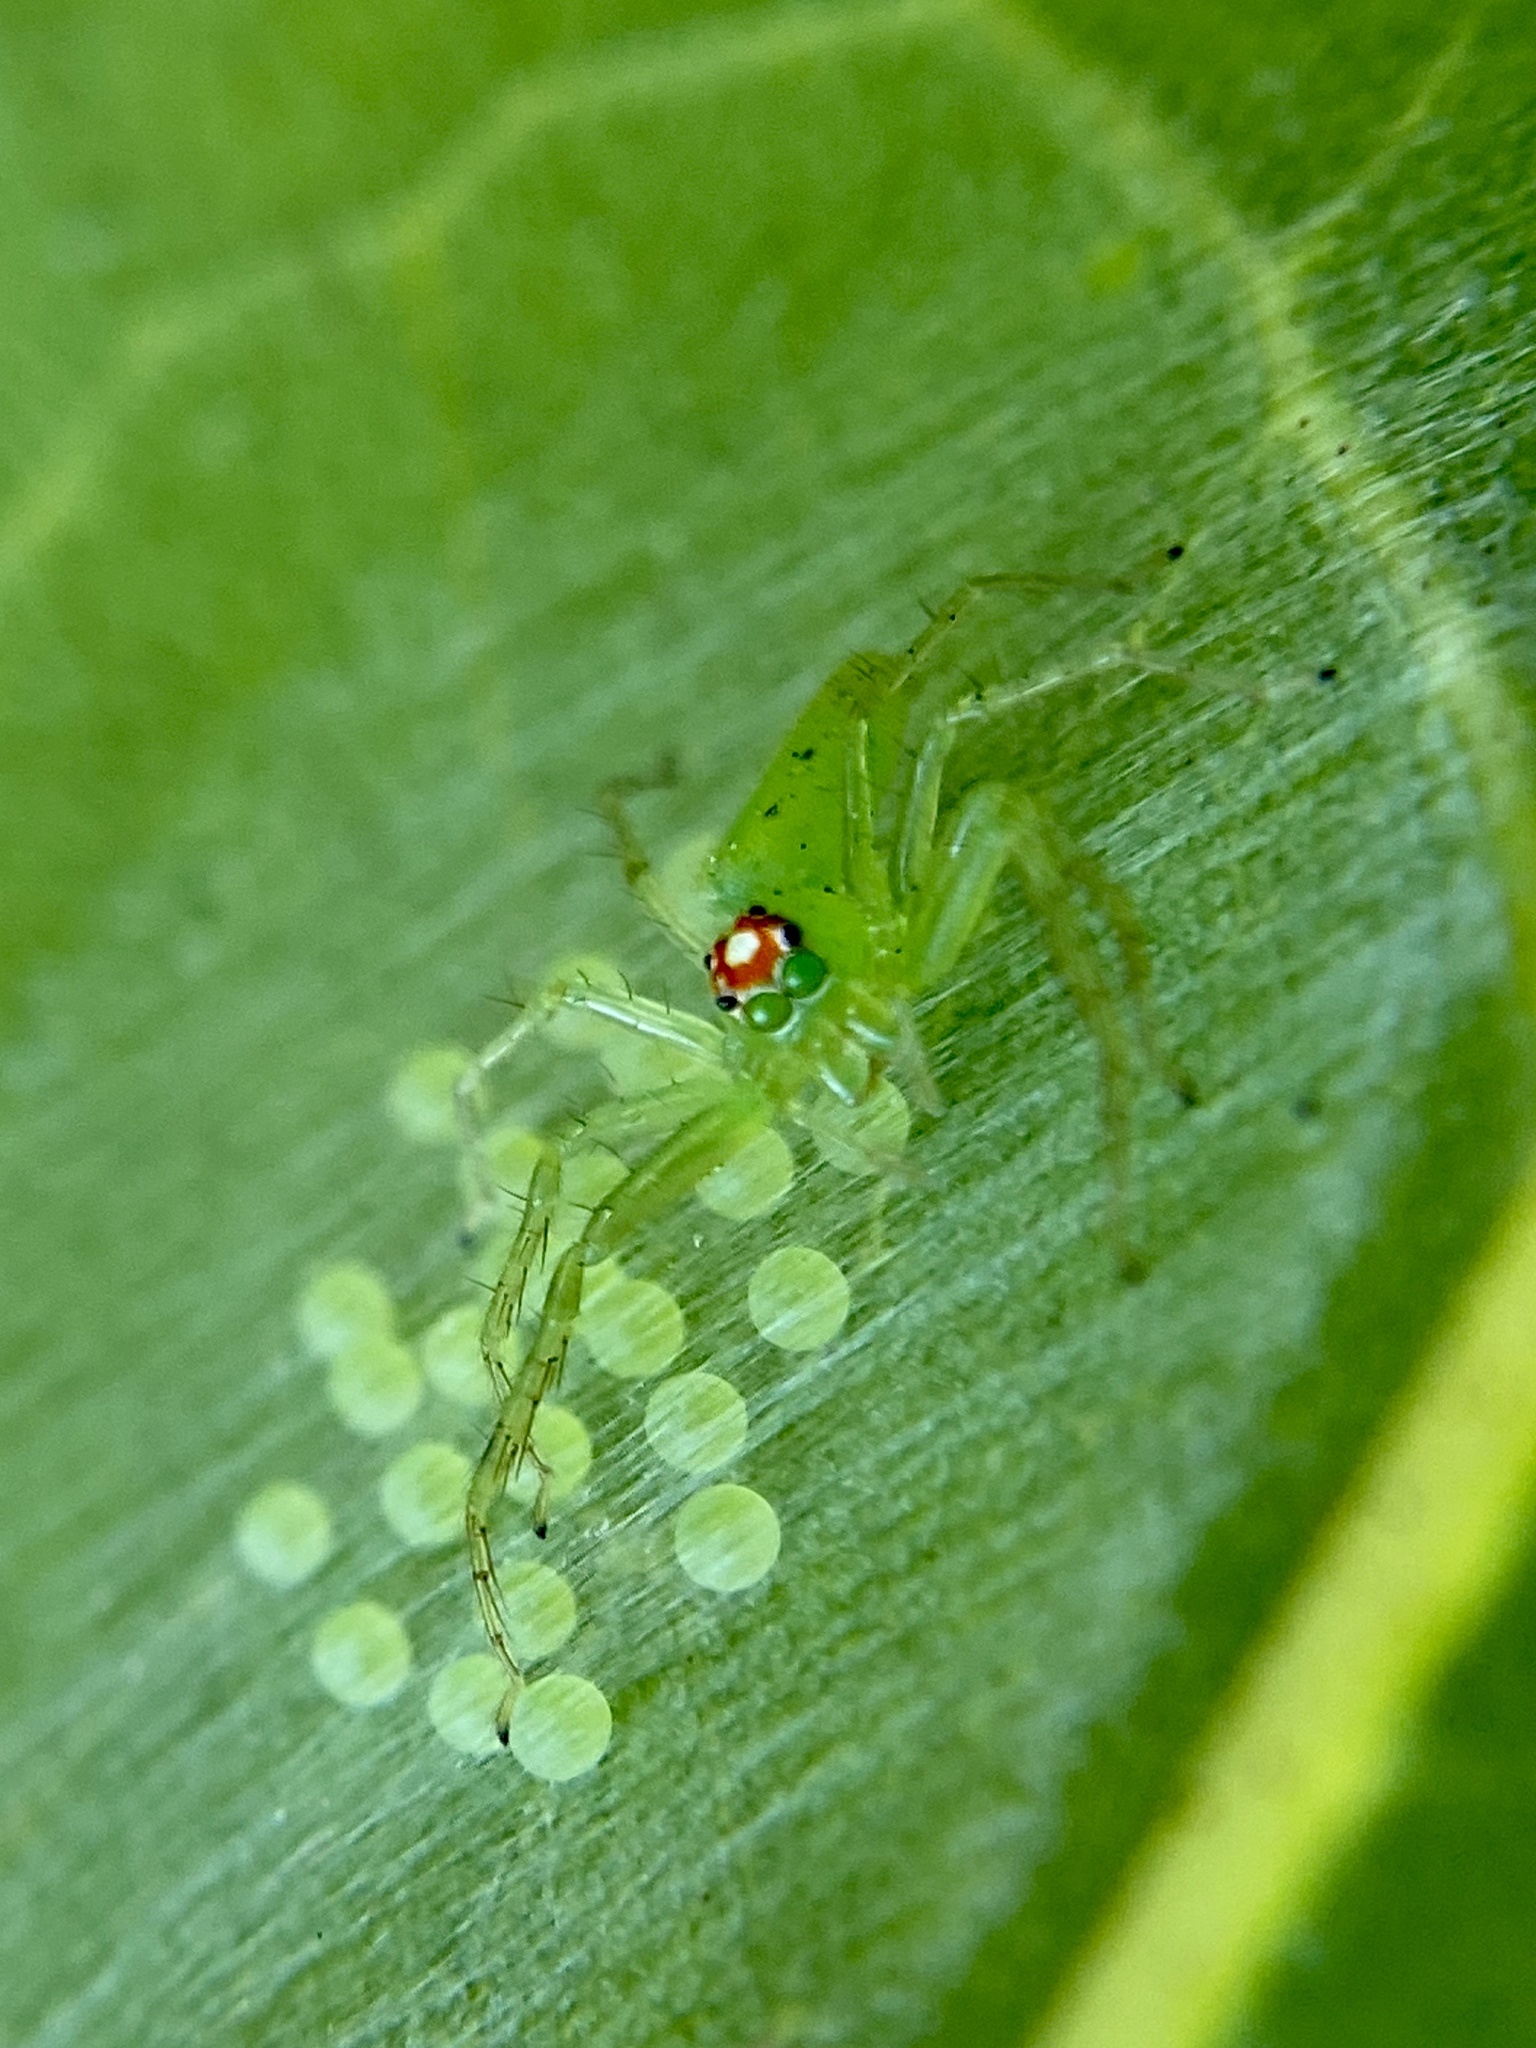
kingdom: Animalia
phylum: Arthropoda
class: Arachnida
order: Araneae
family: Salticidae
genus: Lyssomanes
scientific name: Lyssomanes viridis
